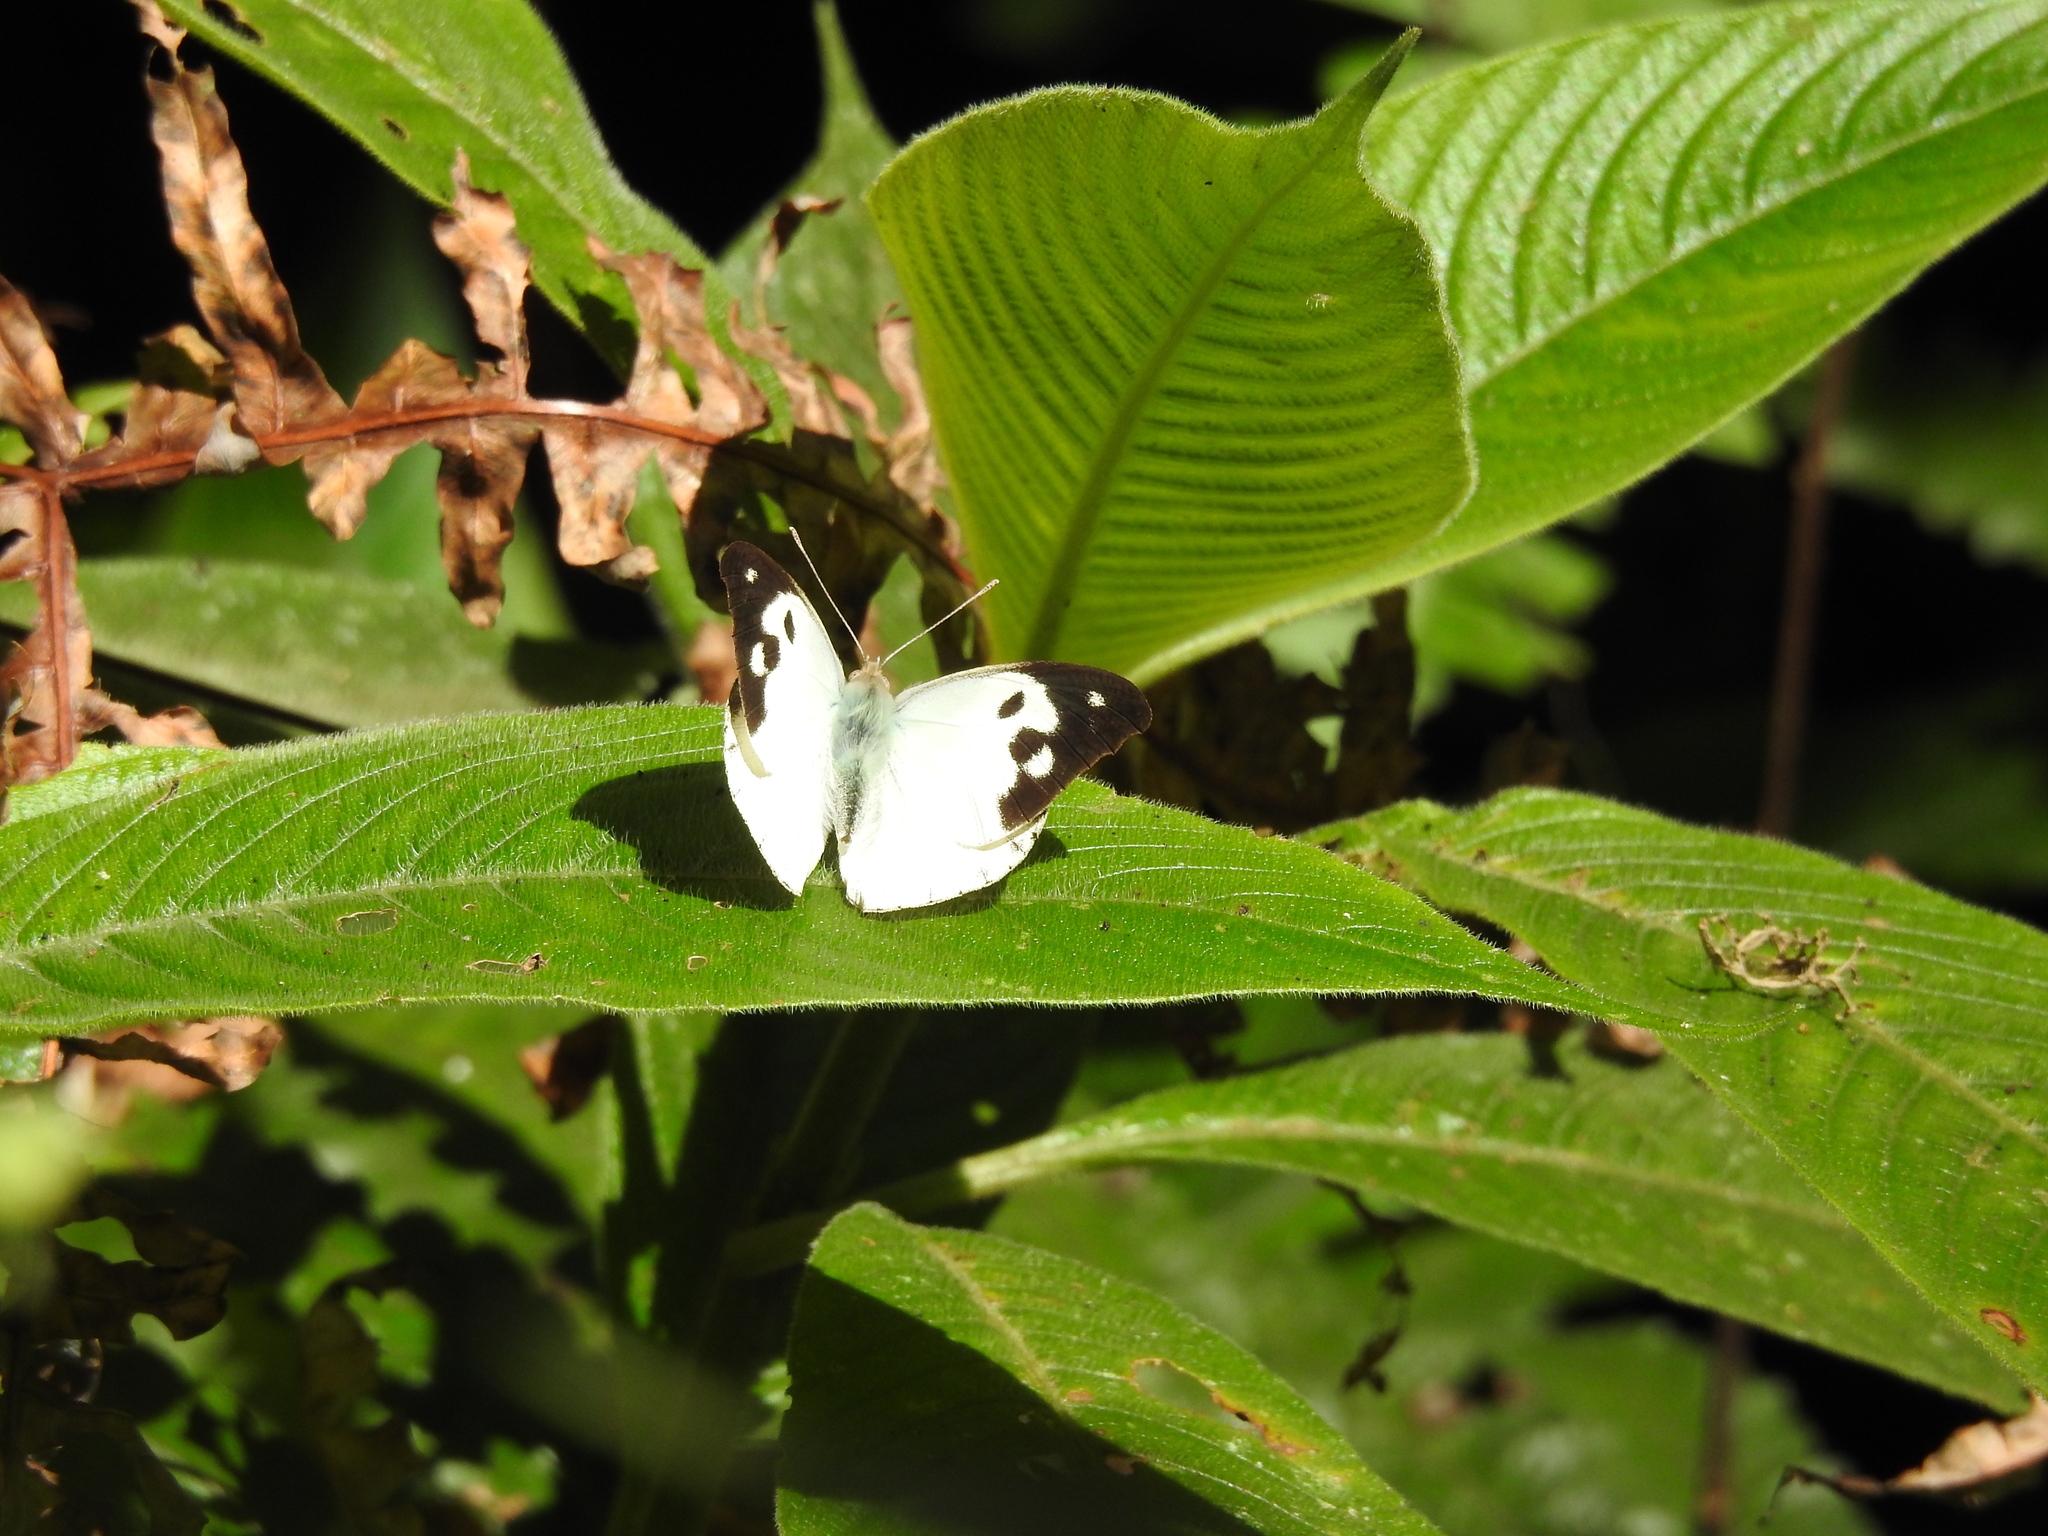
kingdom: Animalia
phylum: Arthropoda
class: Insecta
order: Lepidoptera
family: Pieridae
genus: Appias
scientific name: Appias lalage
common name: Spot puffin
